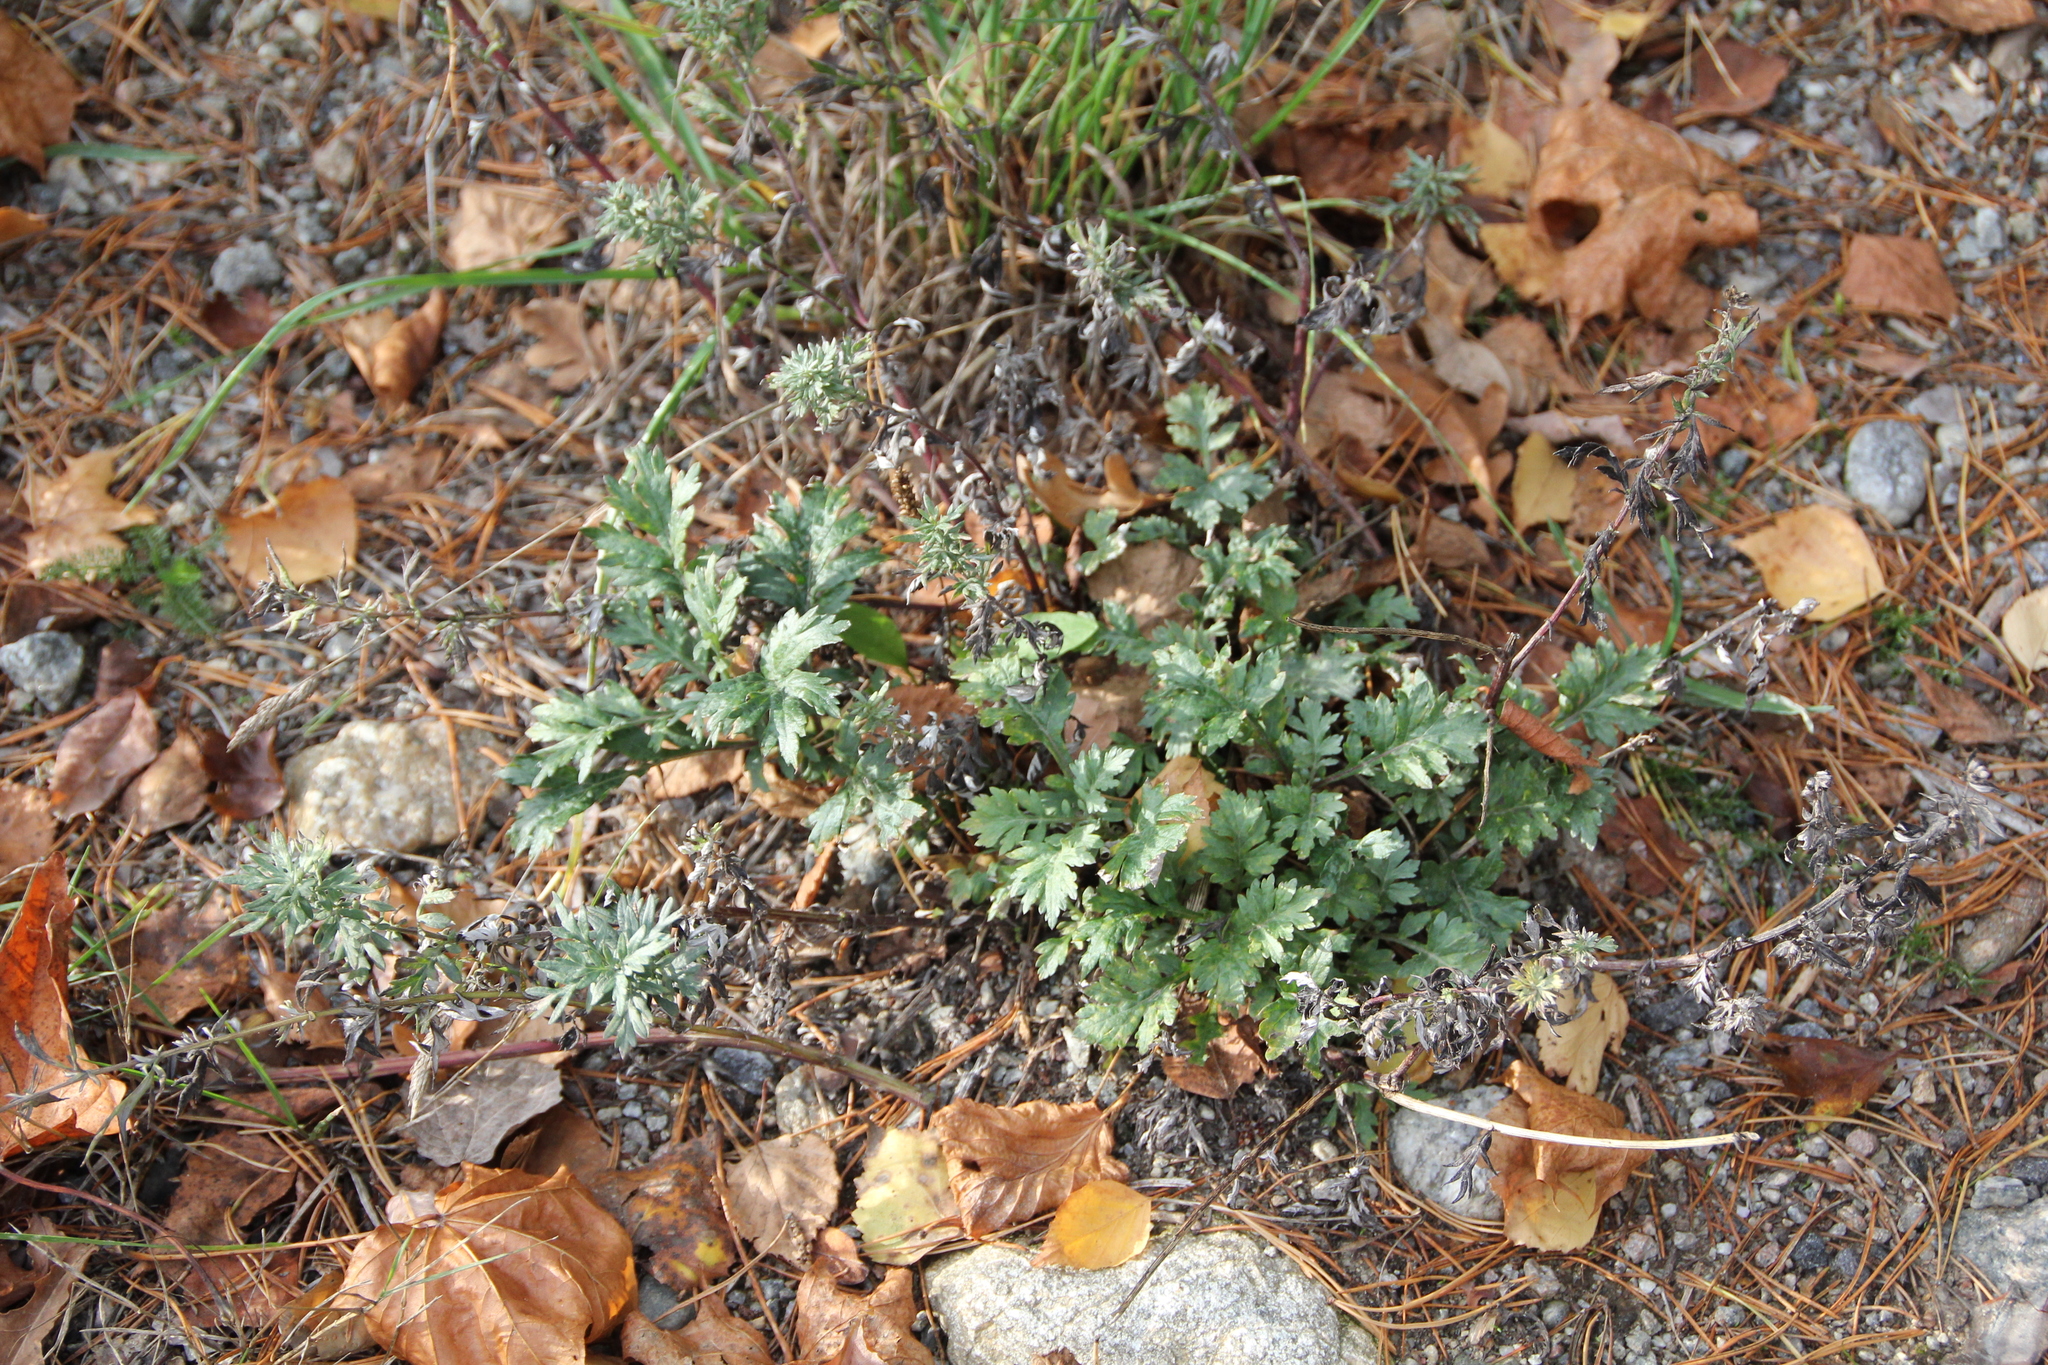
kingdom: Plantae
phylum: Tracheophyta
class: Magnoliopsida
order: Asterales
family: Asteraceae
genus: Artemisia
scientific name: Artemisia vulgaris
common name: Mugwort
